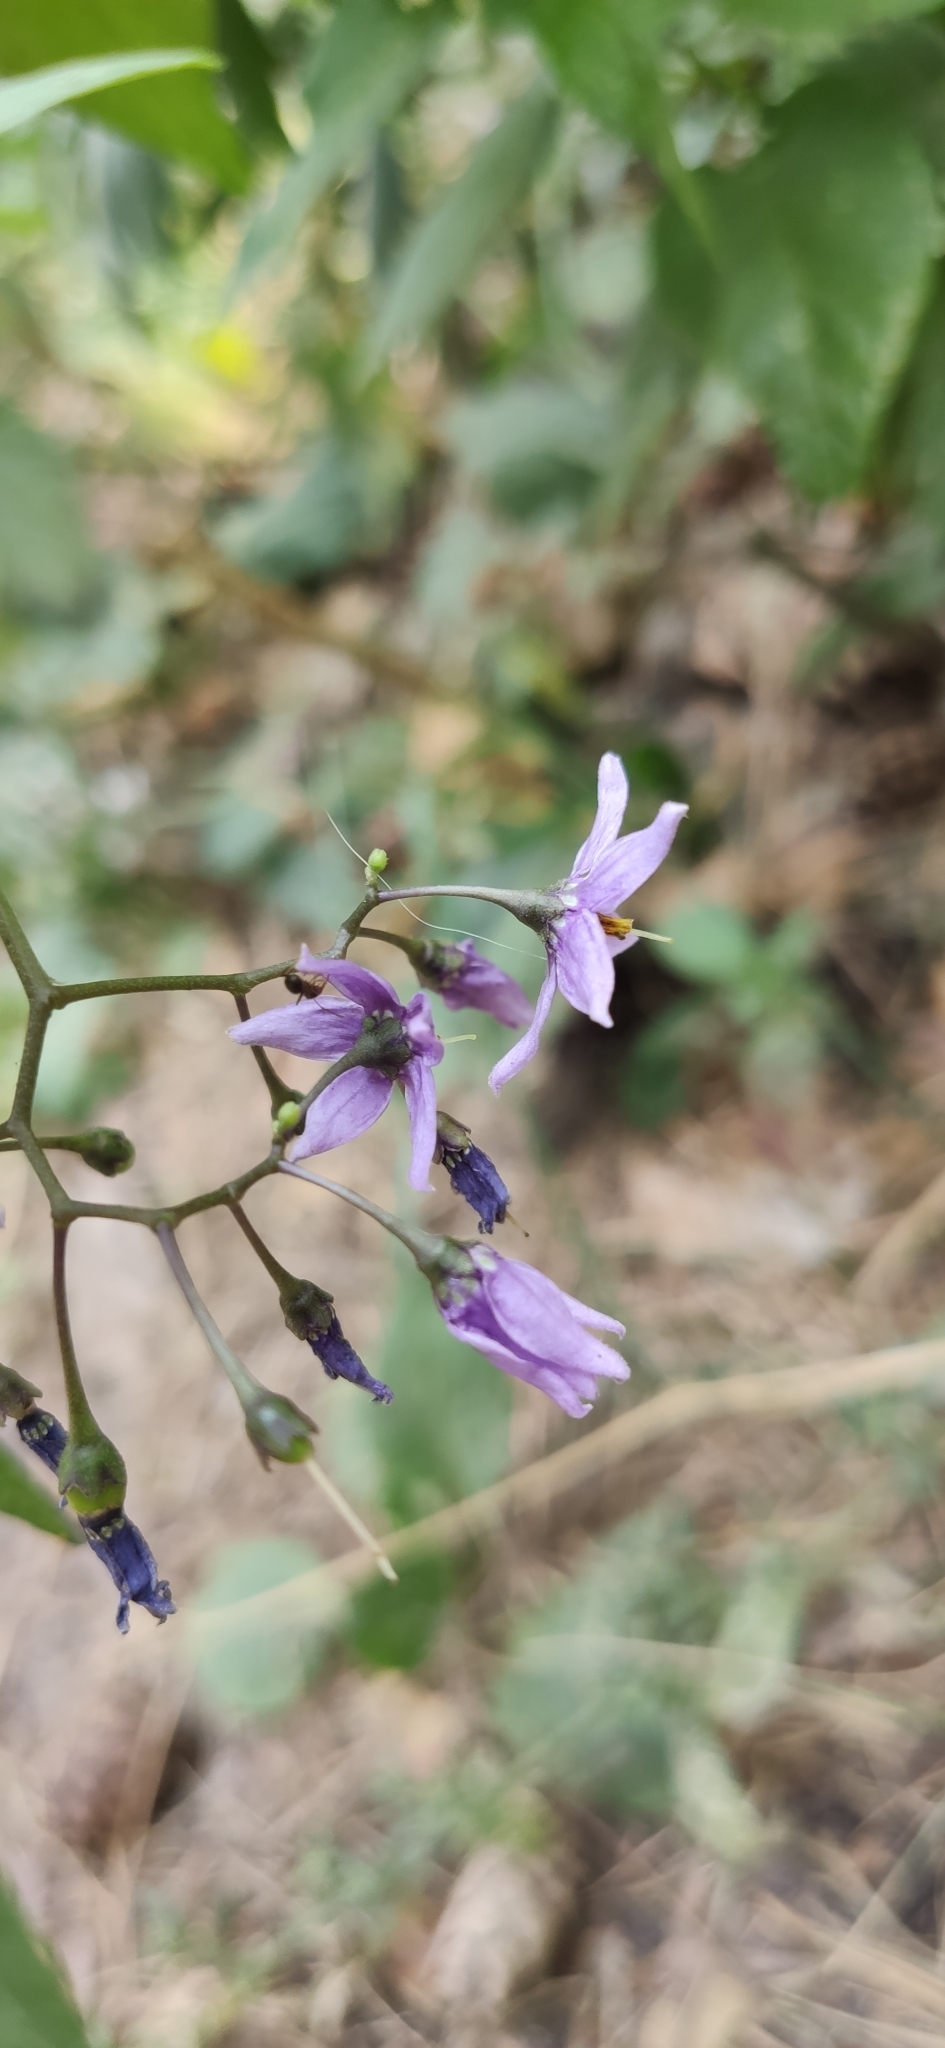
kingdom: Plantae
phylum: Tracheophyta
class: Magnoliopsida
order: Solanales
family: Solanaceae
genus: Solanum
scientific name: Solanum dulcamara
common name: Climbing nightshade
